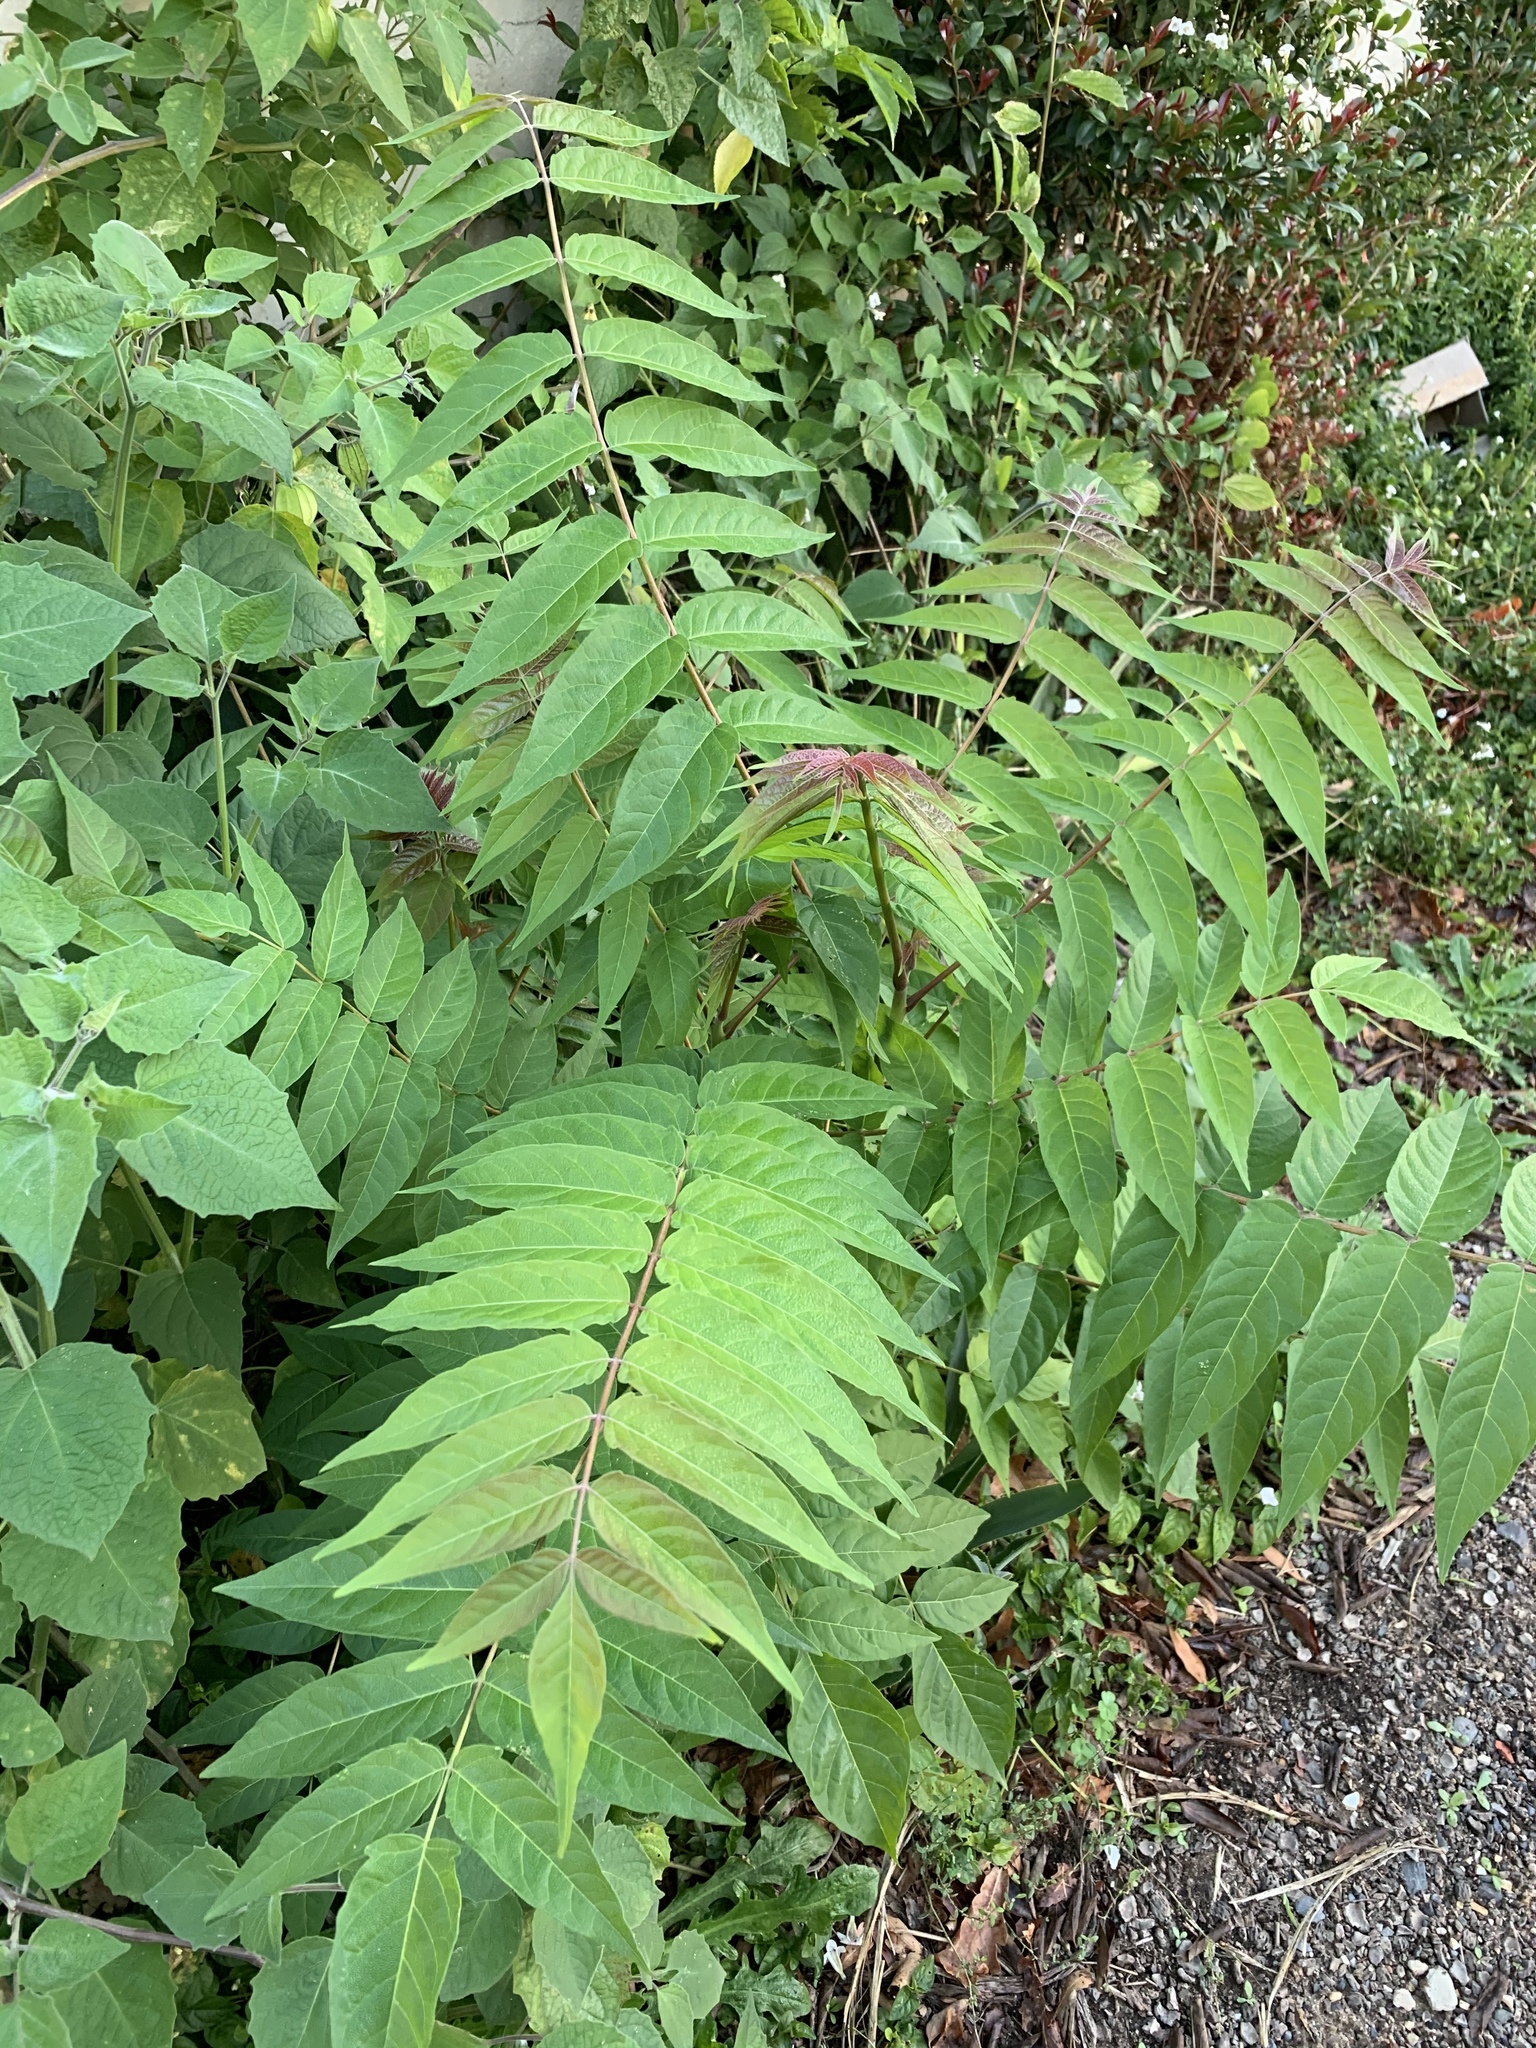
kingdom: Plantae
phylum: Tracheophyta
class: Magnoliopsida
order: Sapindales
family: Simaroubaceae
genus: Ailanthus
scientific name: Ailanthus altissima
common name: Tree-of-heaven
